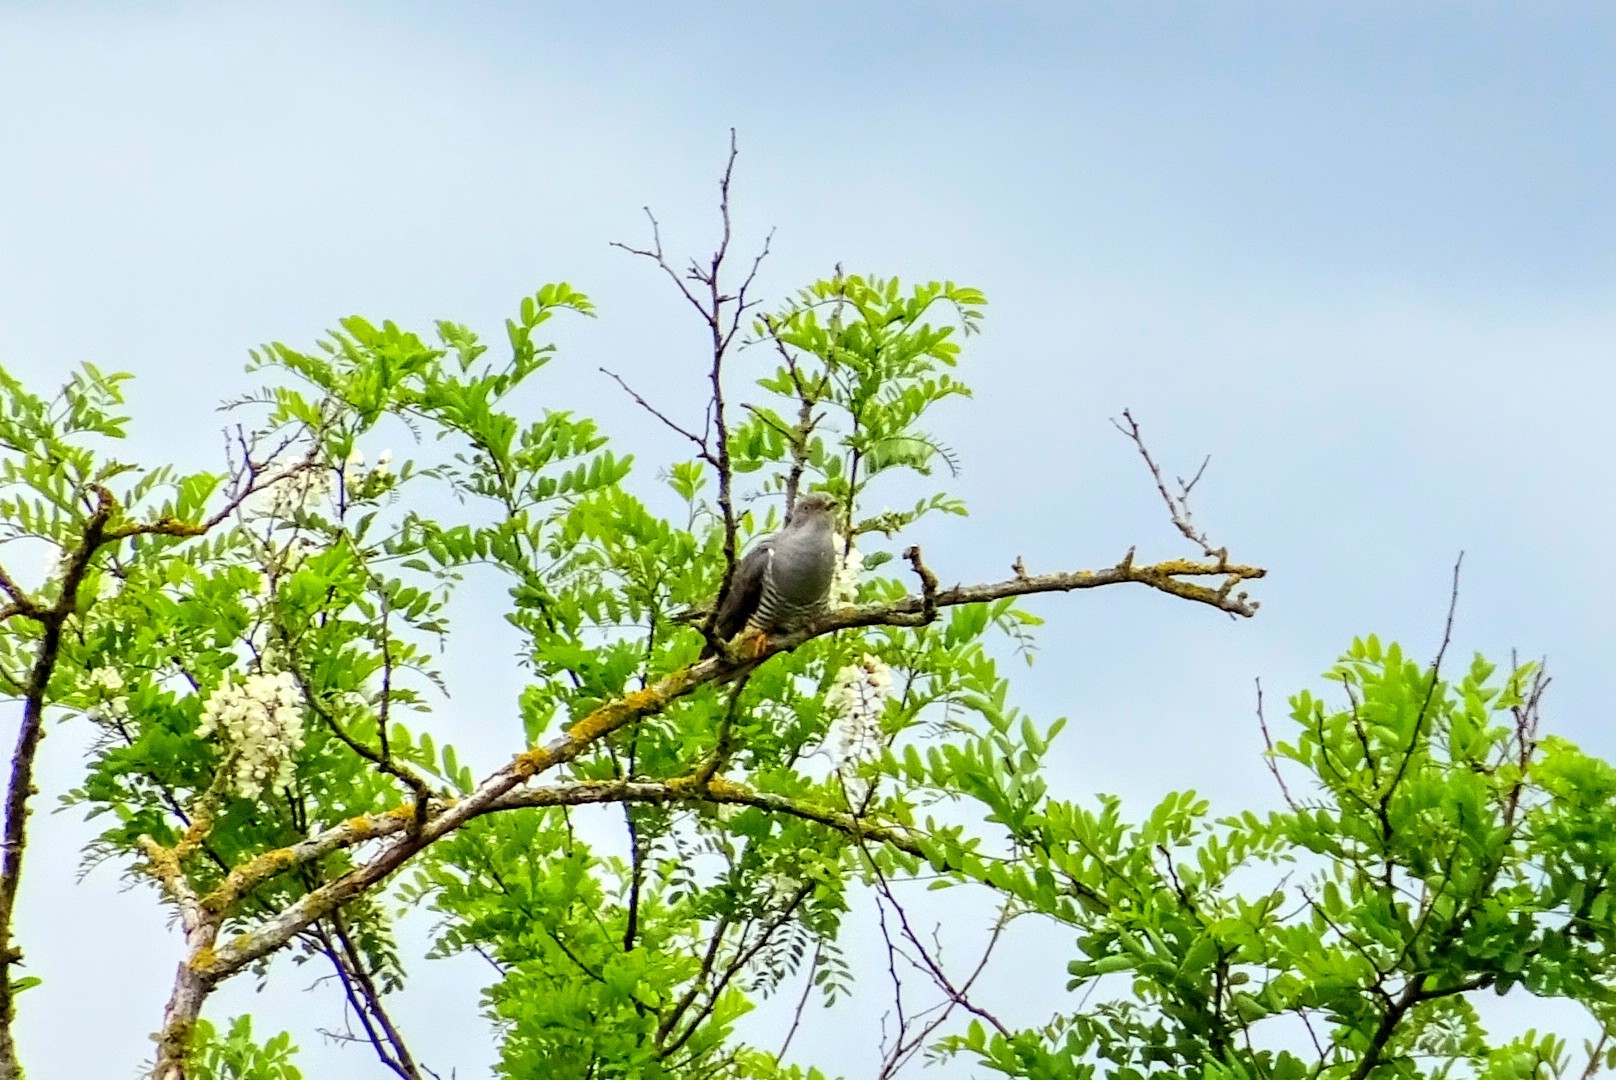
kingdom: Animalia
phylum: Chordata
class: Aves
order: Cuculiformes
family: Cuculidae
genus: Cuculus
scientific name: Cuculus canorus
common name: Common cuckoo
